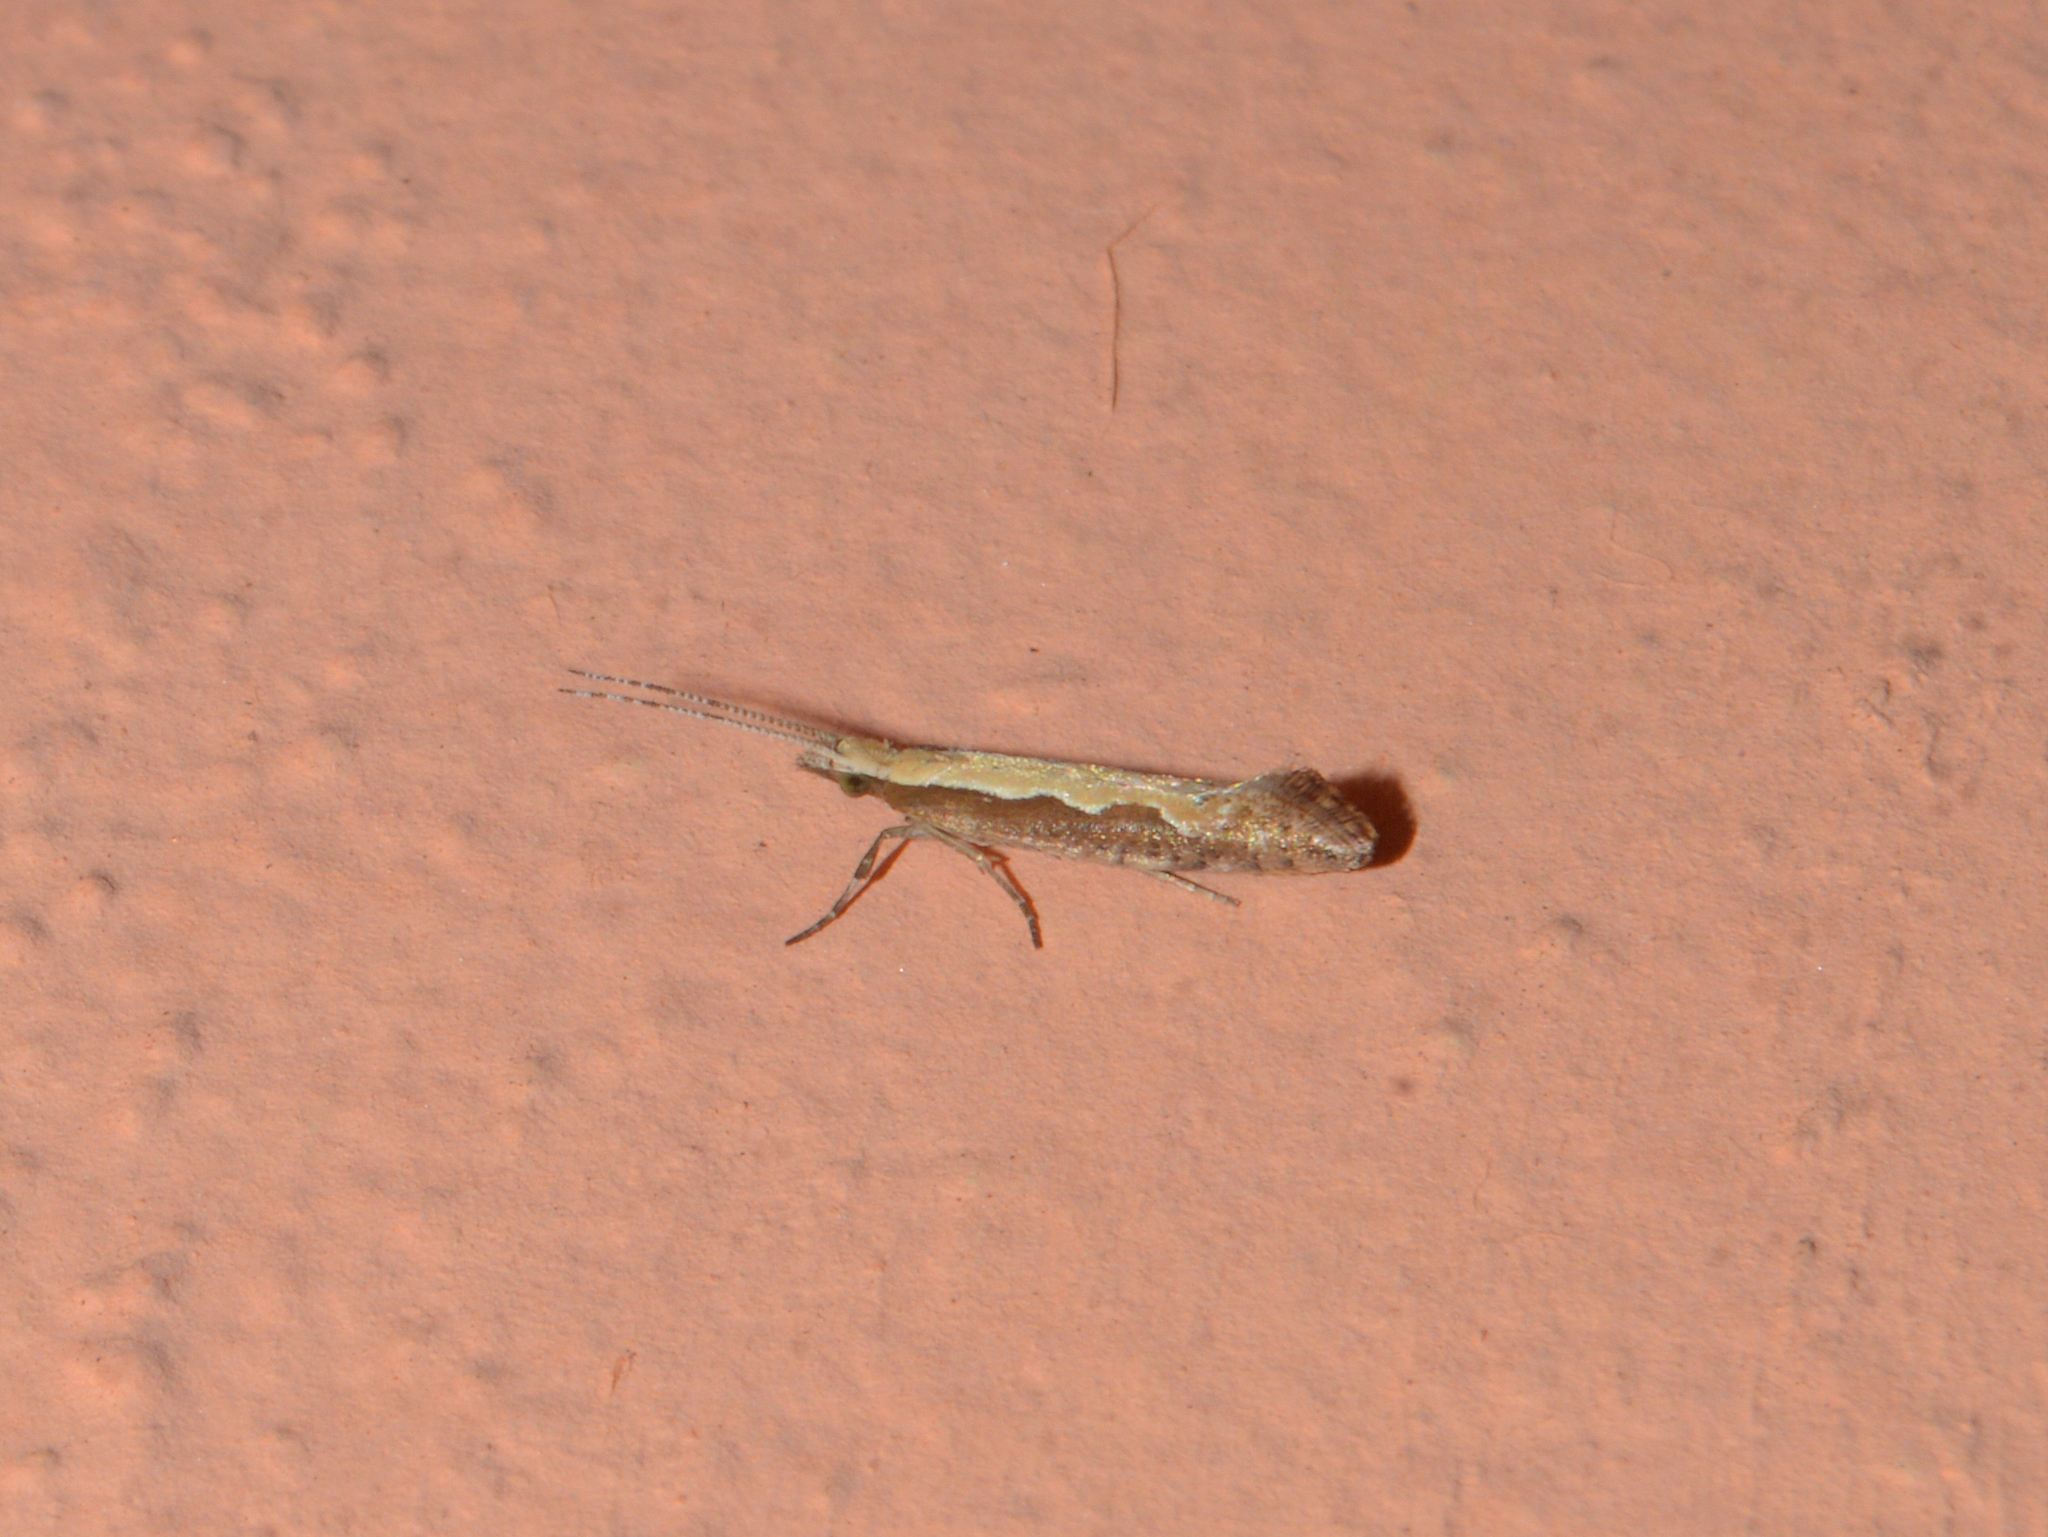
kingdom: Animalia
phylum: Arthropoda
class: Insecta
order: Lepidoptera
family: Plutellidae
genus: Plutella
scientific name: Plutella xylostella
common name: Diamond-back moth
